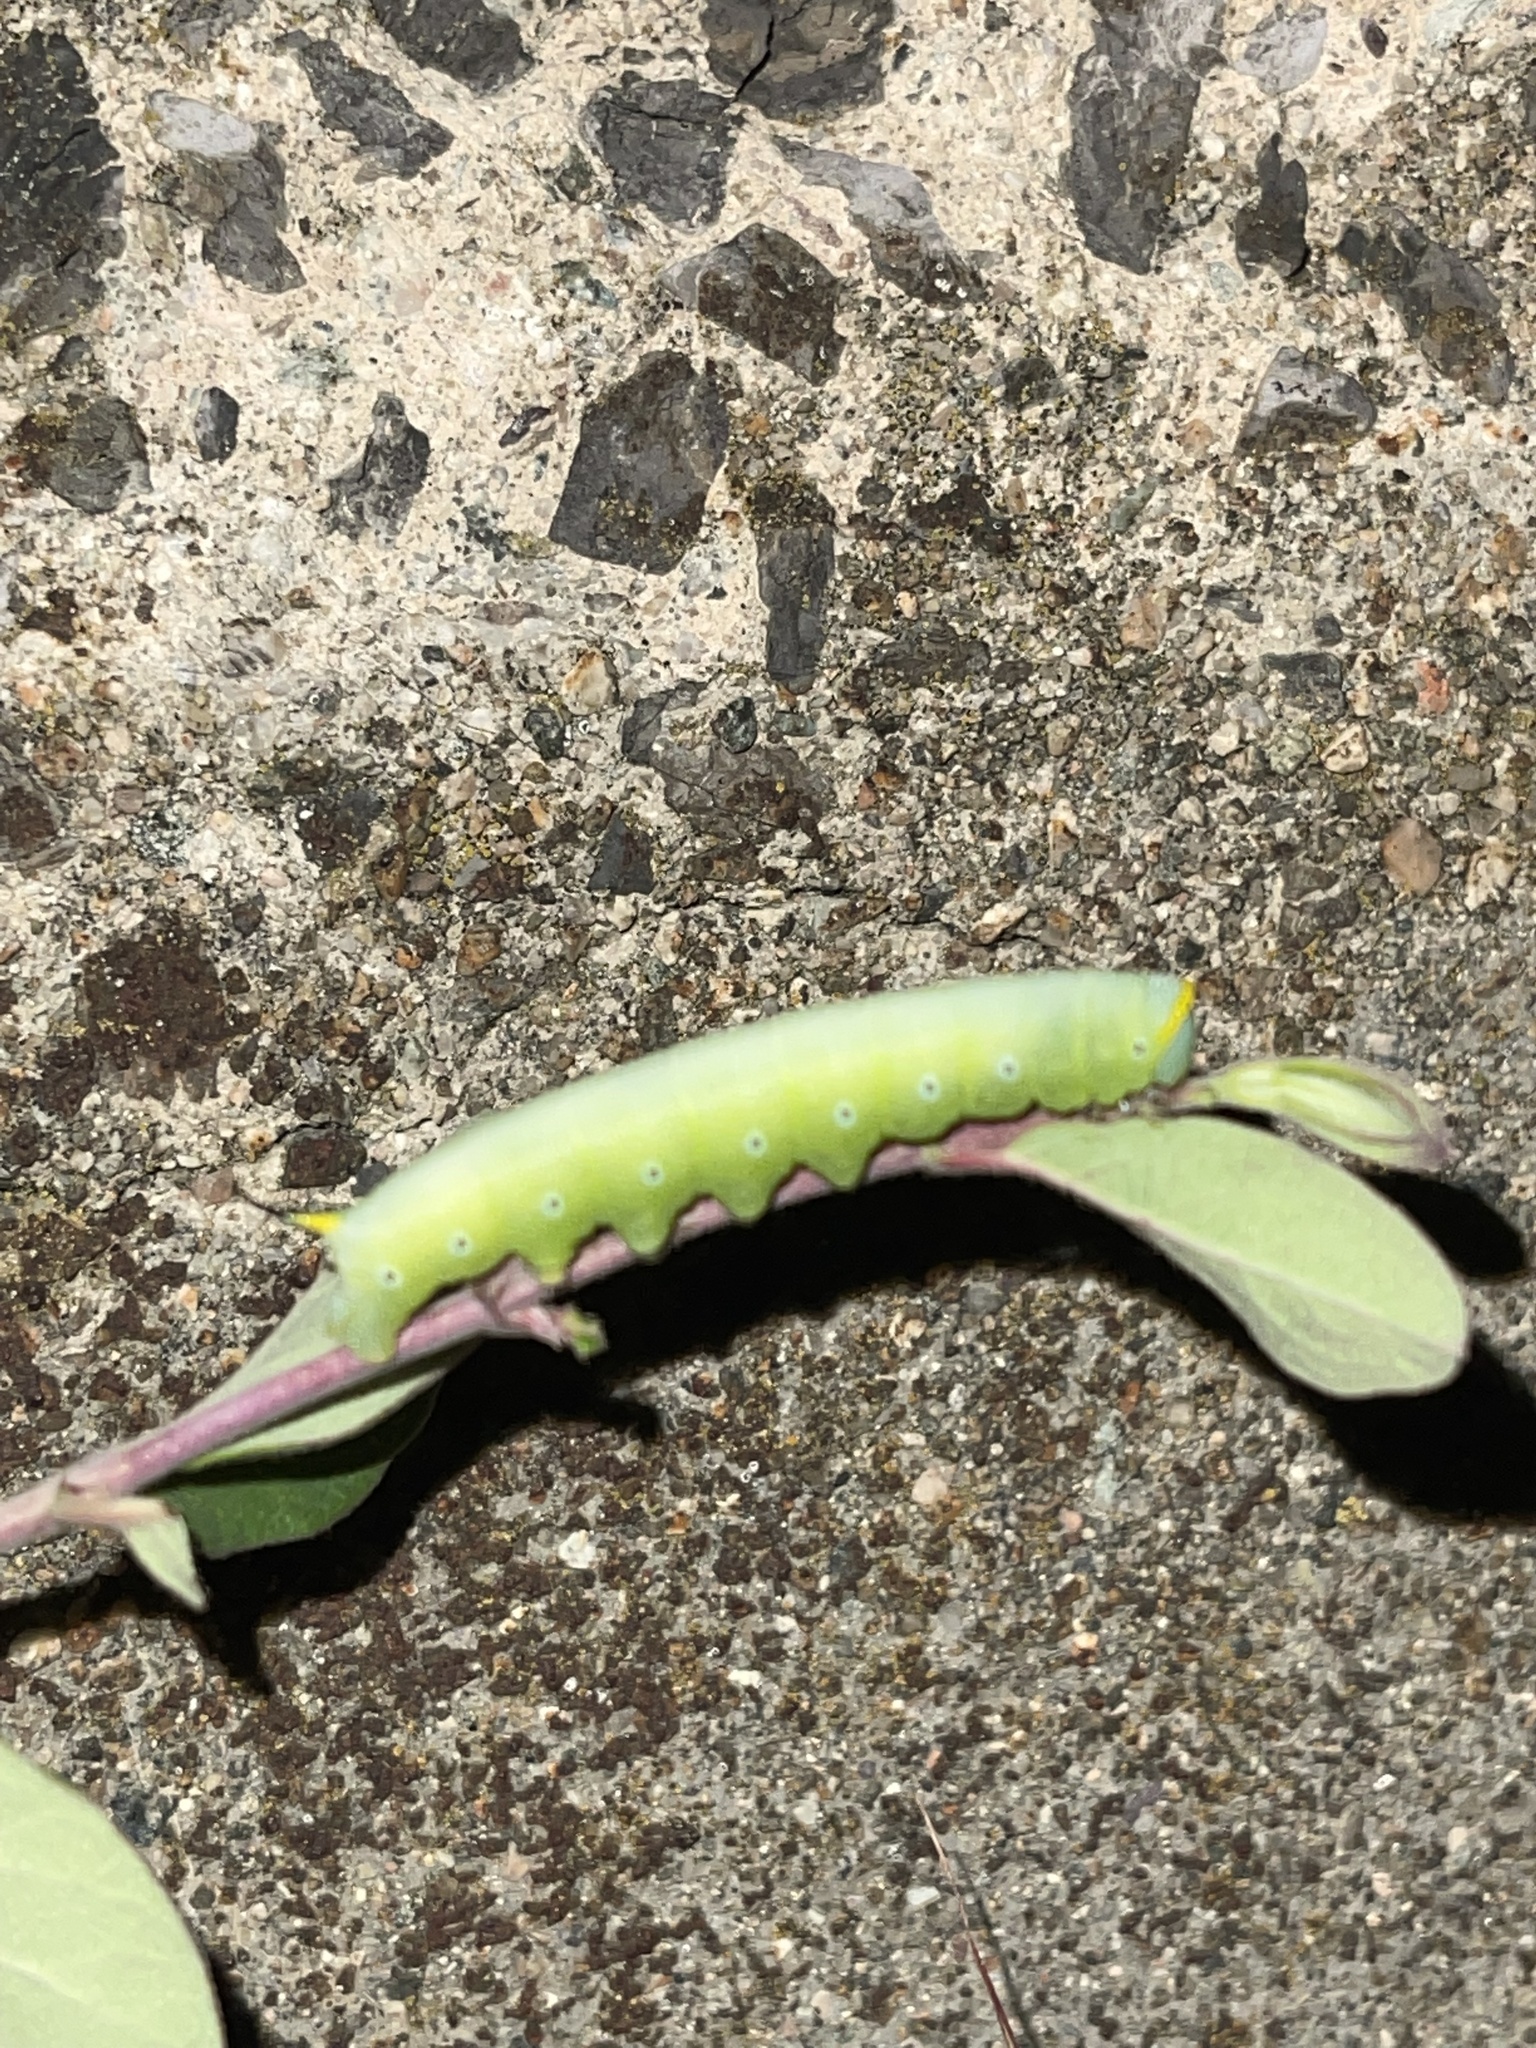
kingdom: Animalia
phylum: Arthropoda
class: Insecta
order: Lepidoptera
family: Sphingidae
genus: Hemaris
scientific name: Hemaris diffinis
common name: Bumblebee moth
